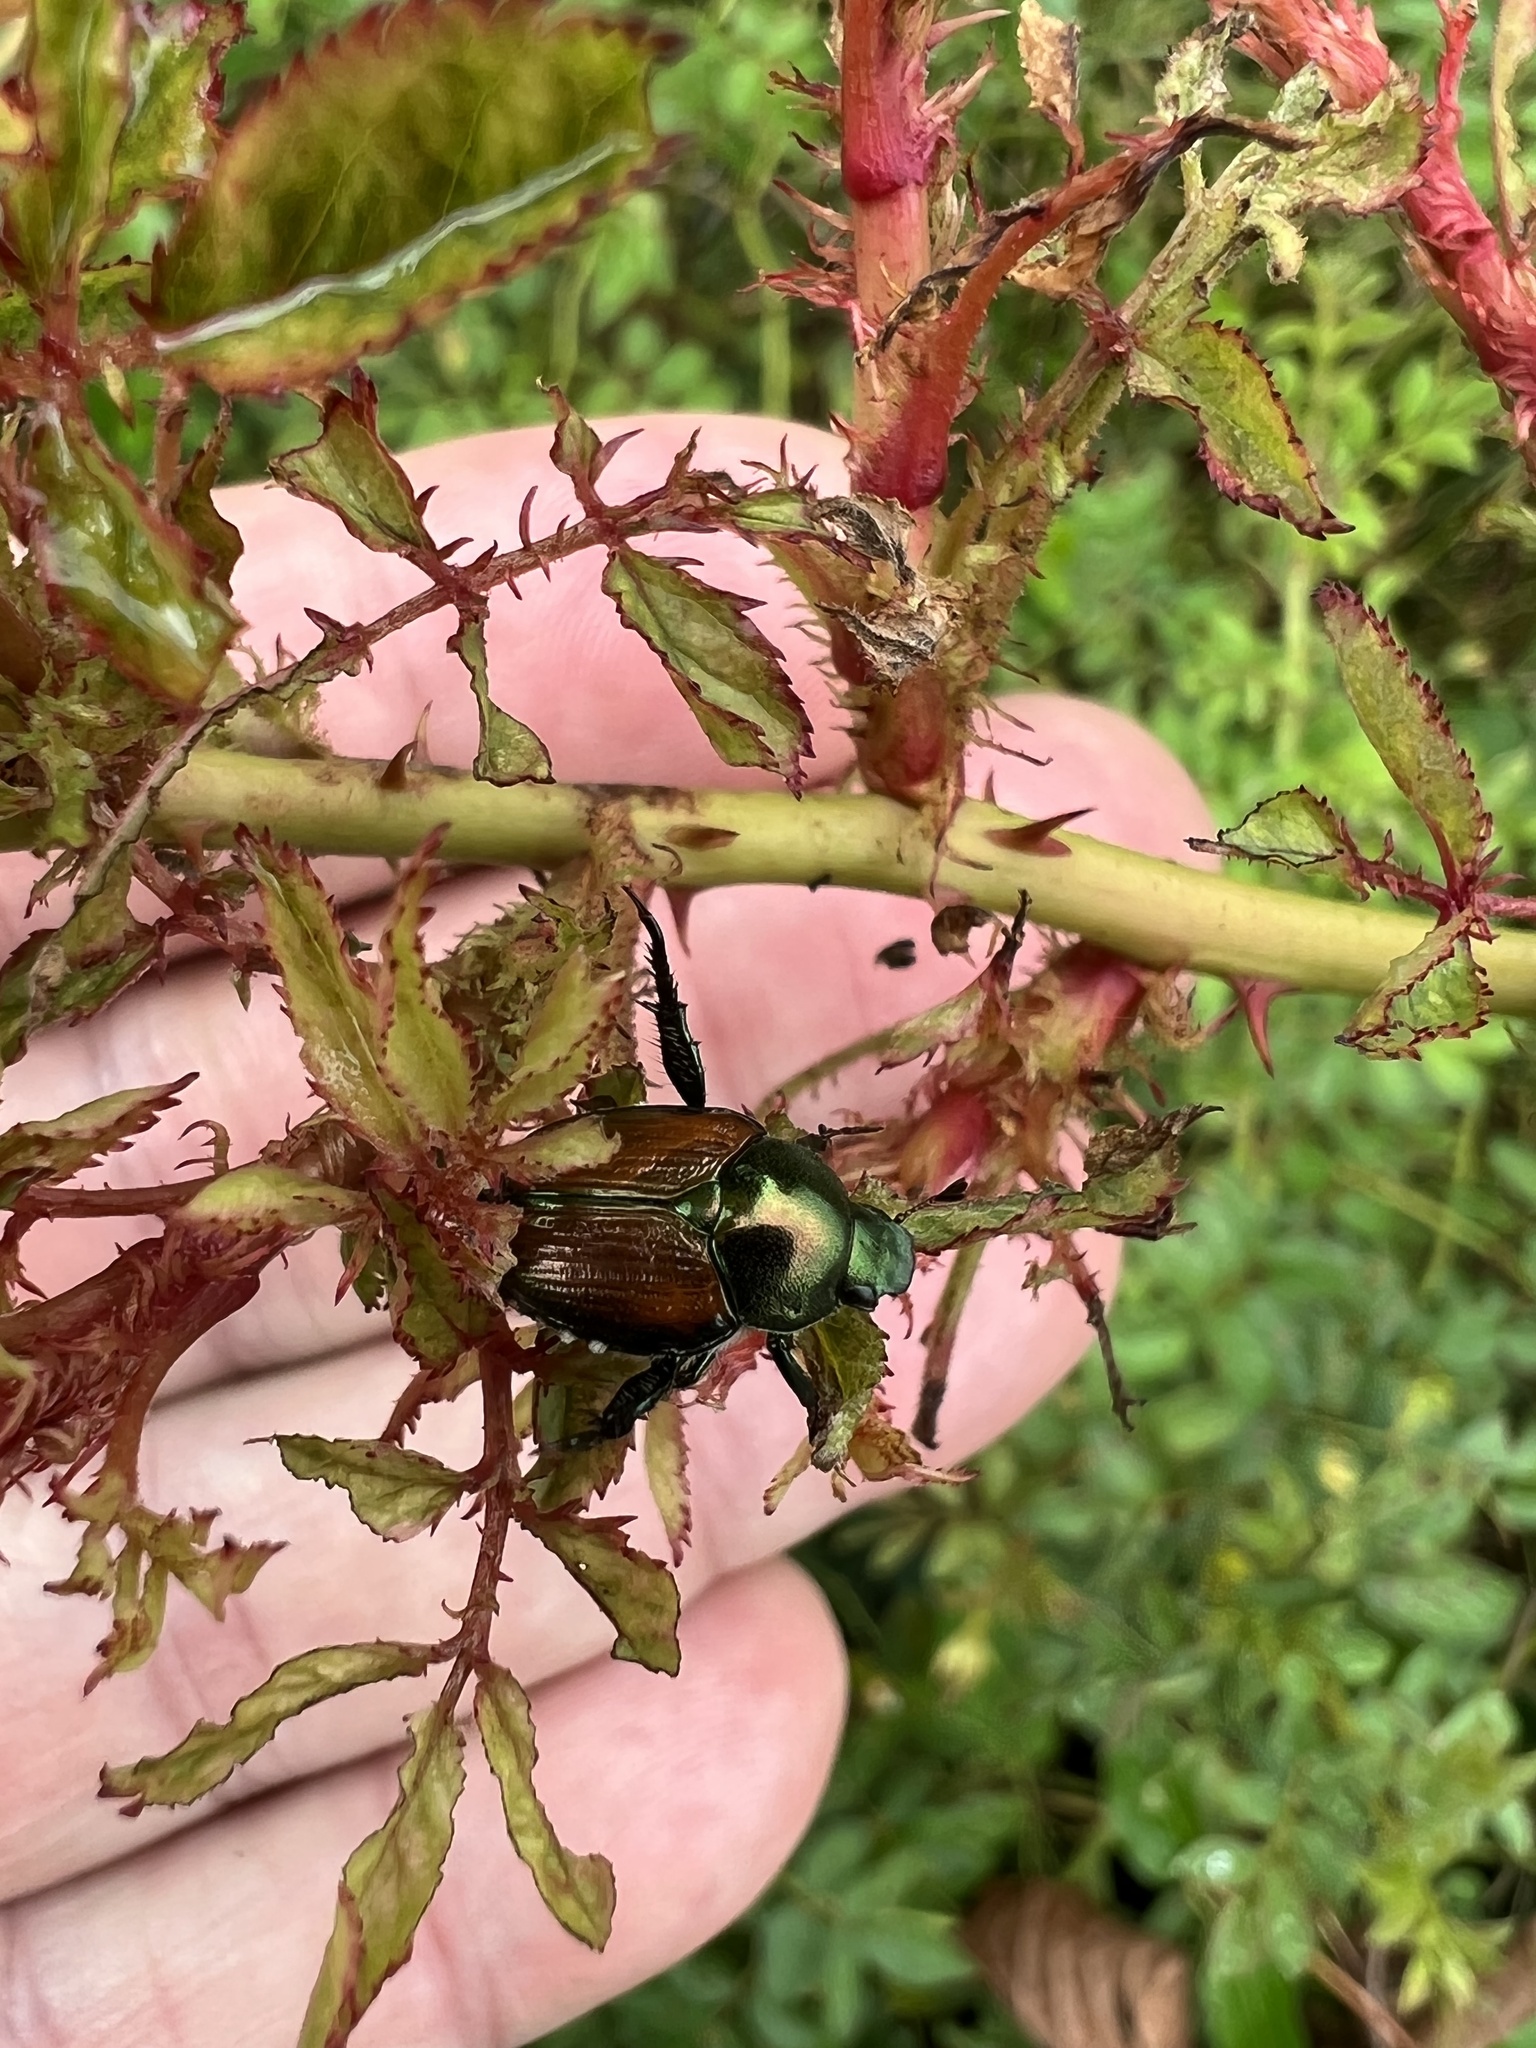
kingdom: Animalia
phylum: Arthropoda
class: Insecta
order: Coleoptera
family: Scarabaeidae
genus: Popillia
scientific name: Popillia japonica
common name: Japanese beetle
